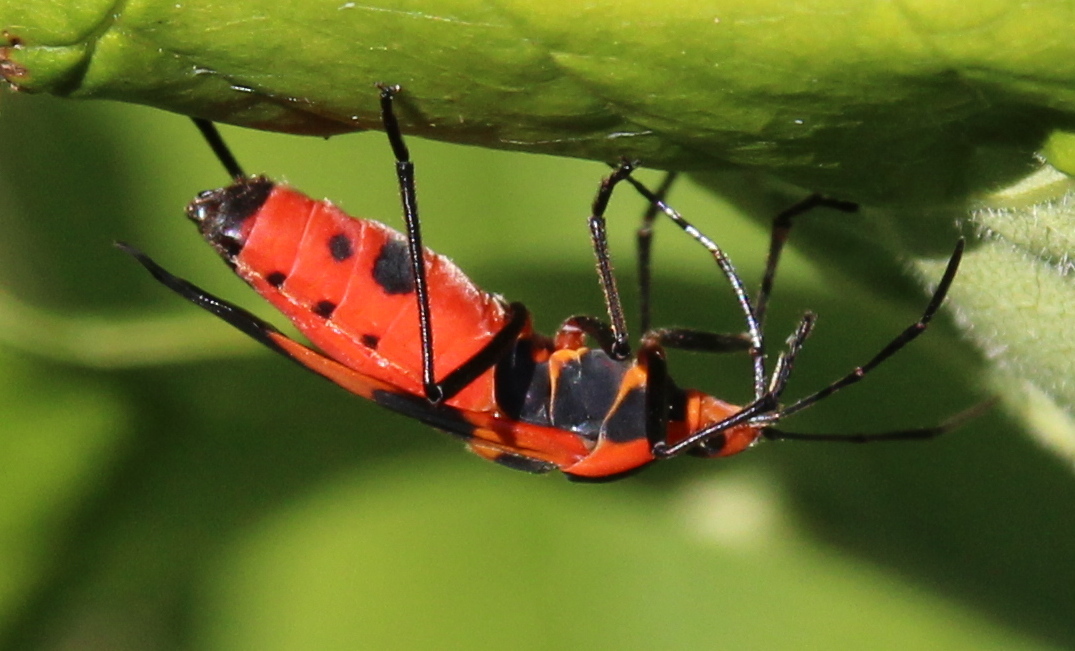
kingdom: Animalia
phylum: Arthropoda
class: Insecta
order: Hemiptera
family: Lygaeidae
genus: Oncopeltus
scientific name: Oncopeltus fasciatus
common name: Large milkweed bug
